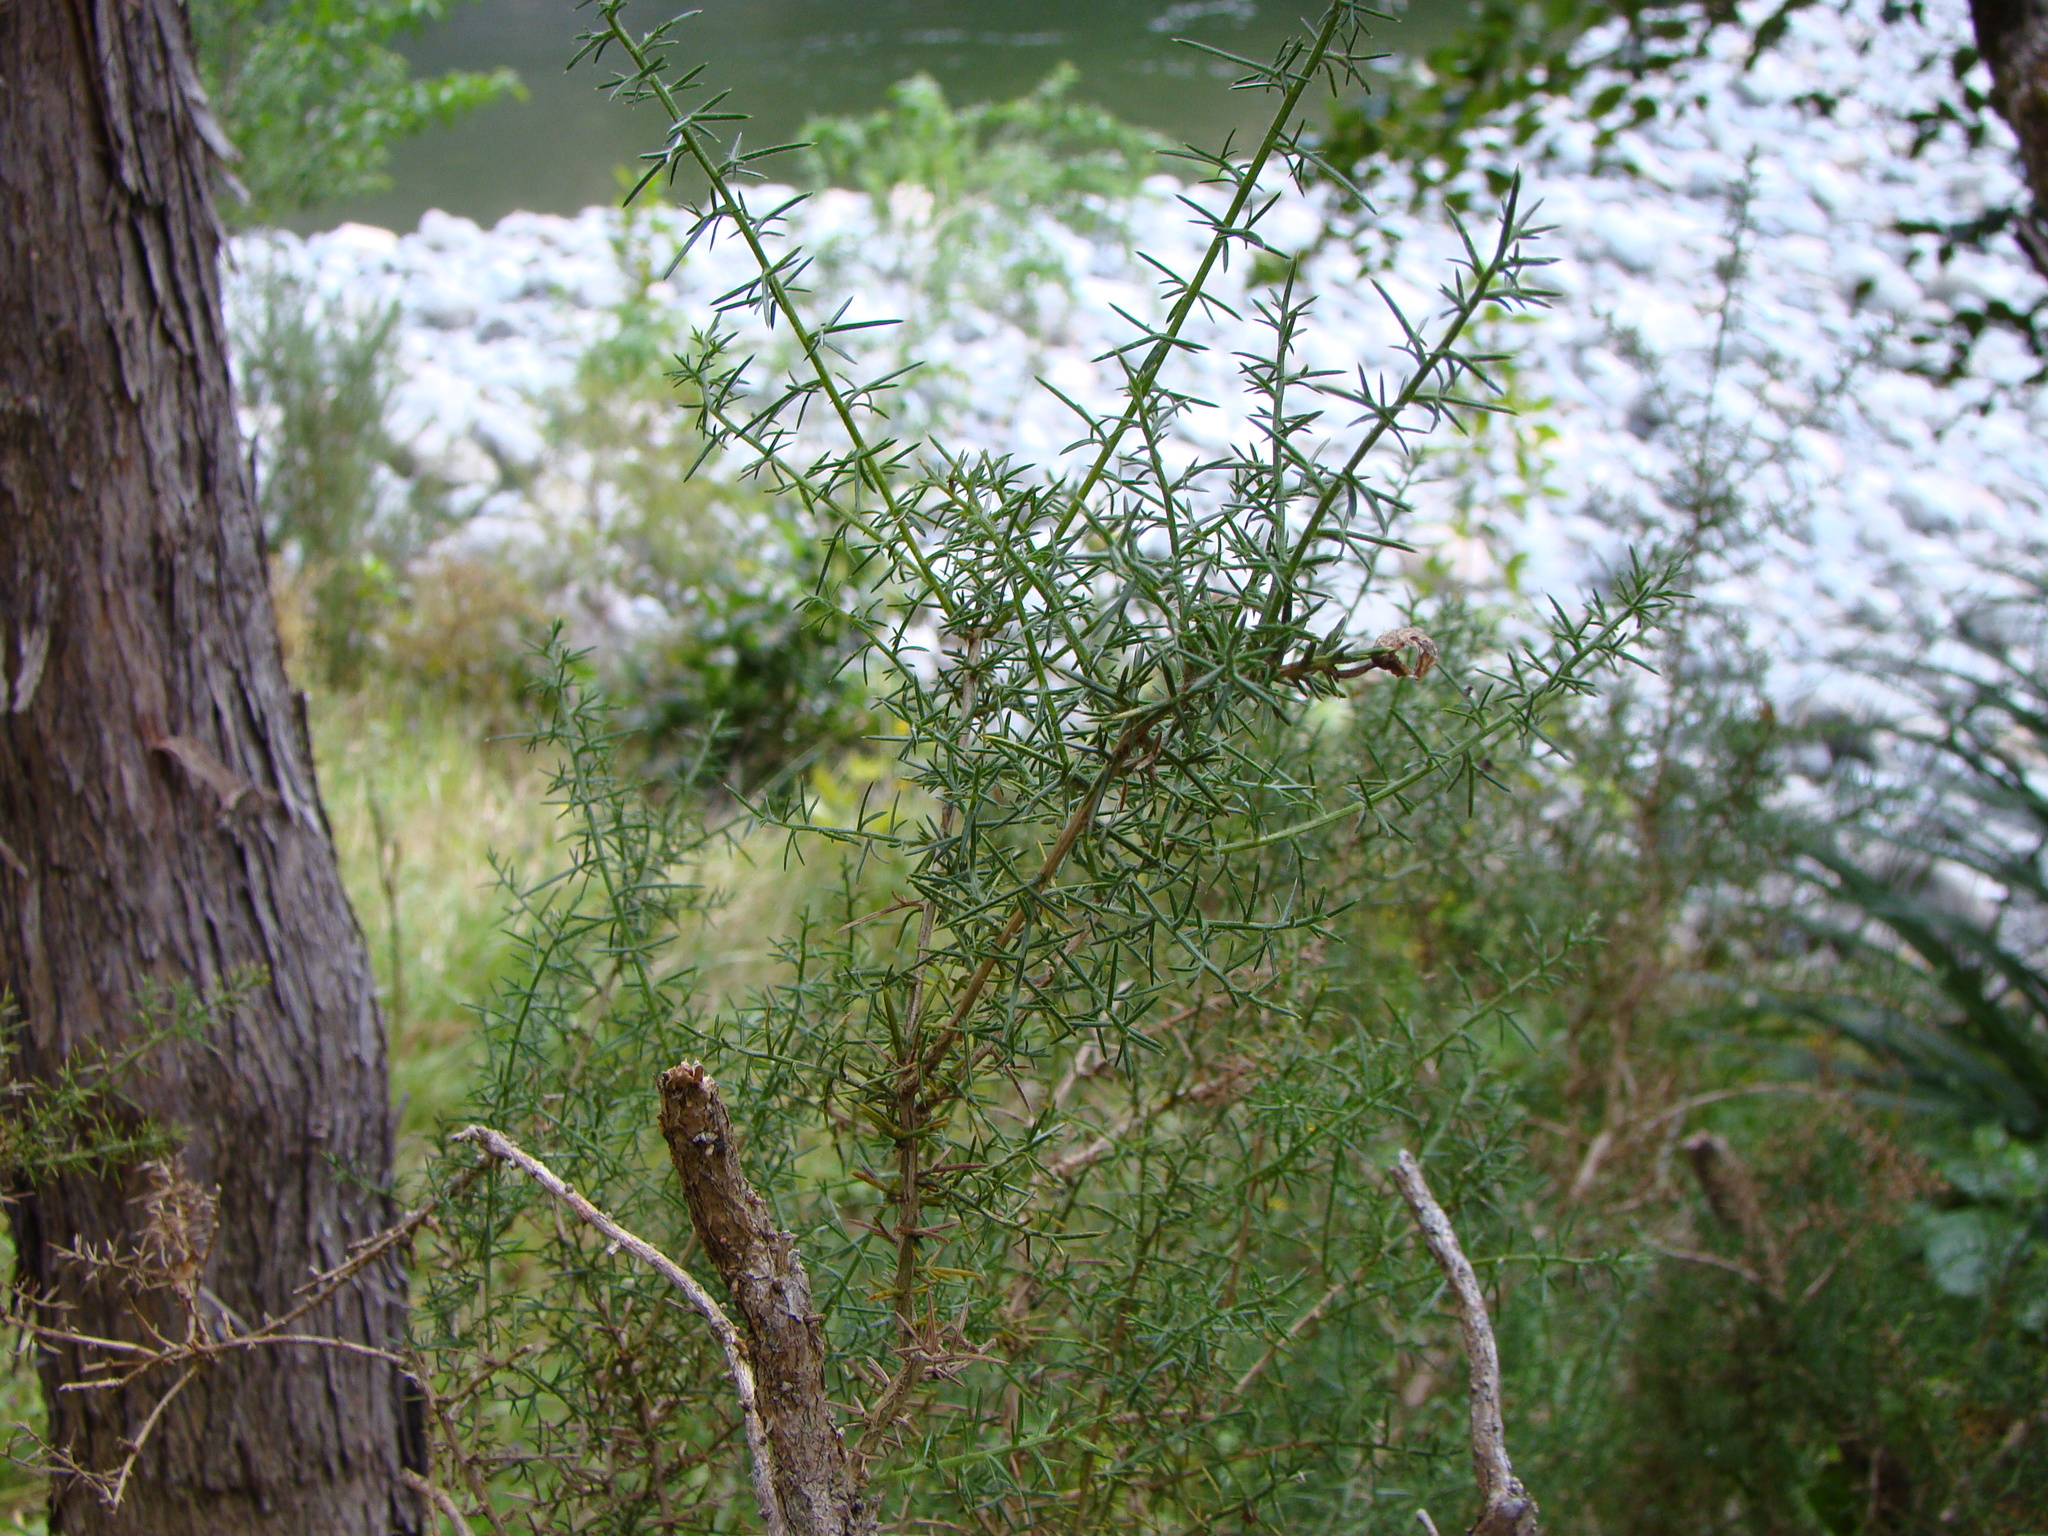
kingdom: Plantae
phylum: Tracheophyta
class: Magnoliopsida
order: Fabales
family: Fabaceae
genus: Ulex
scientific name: Ulex europaeus
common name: Common gorse
